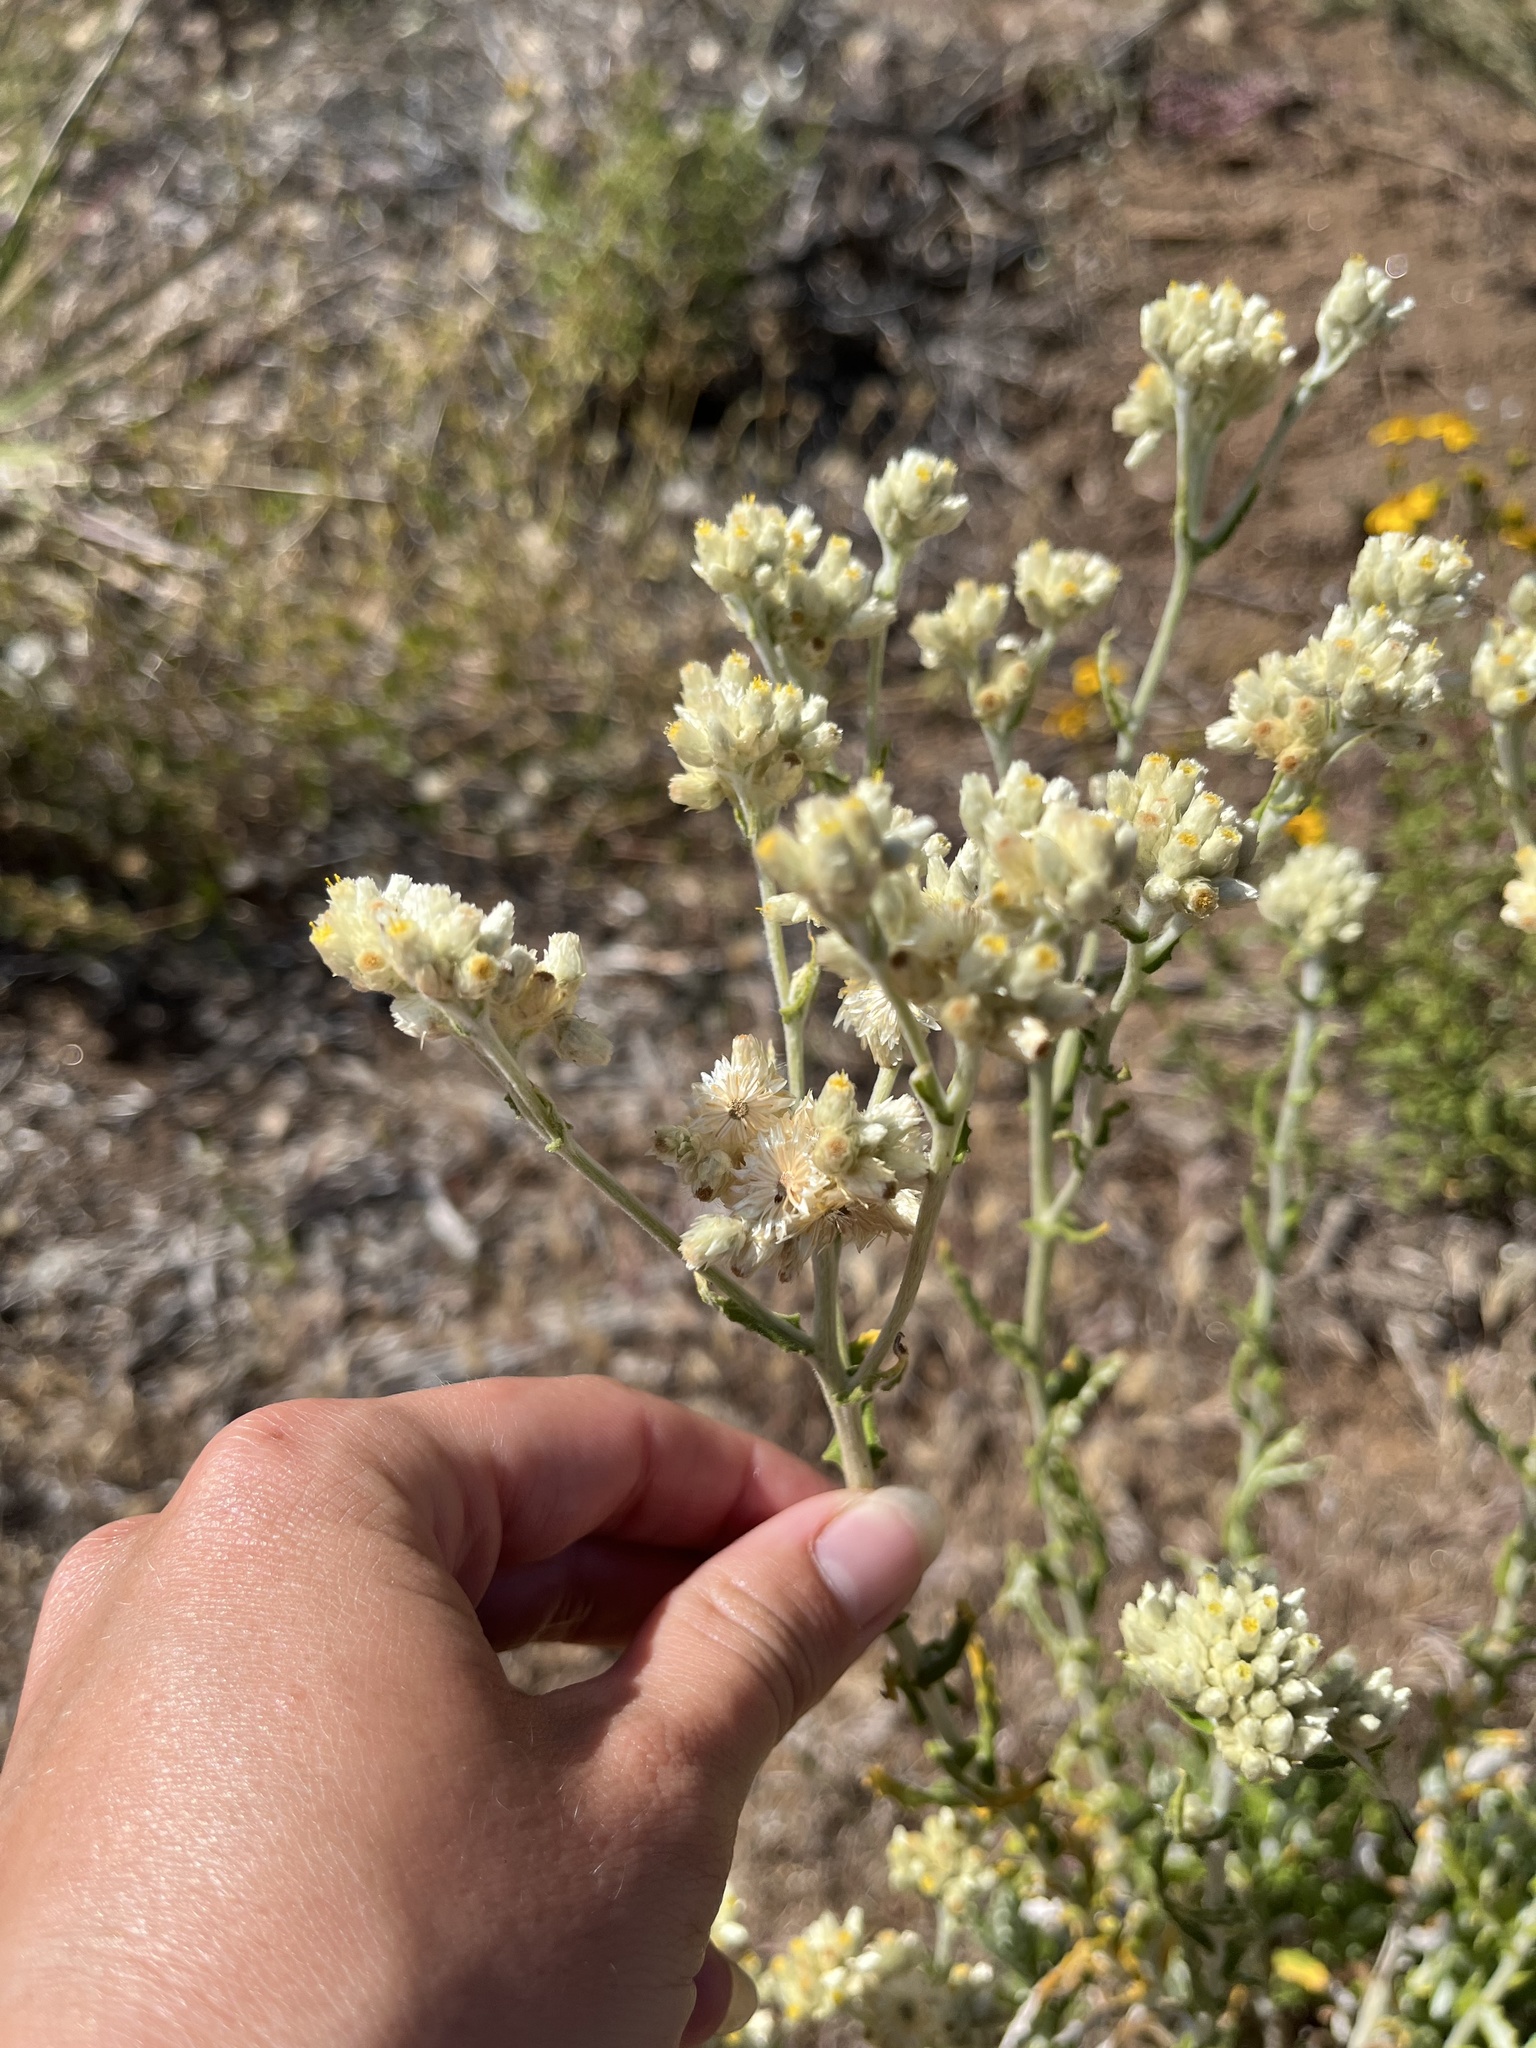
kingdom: Plantae
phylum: Tracheophyta
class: Magnoliopsida
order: Asterales
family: Asteraceae
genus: Pseudognaphalium
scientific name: Pseudognaphalium biolettii
